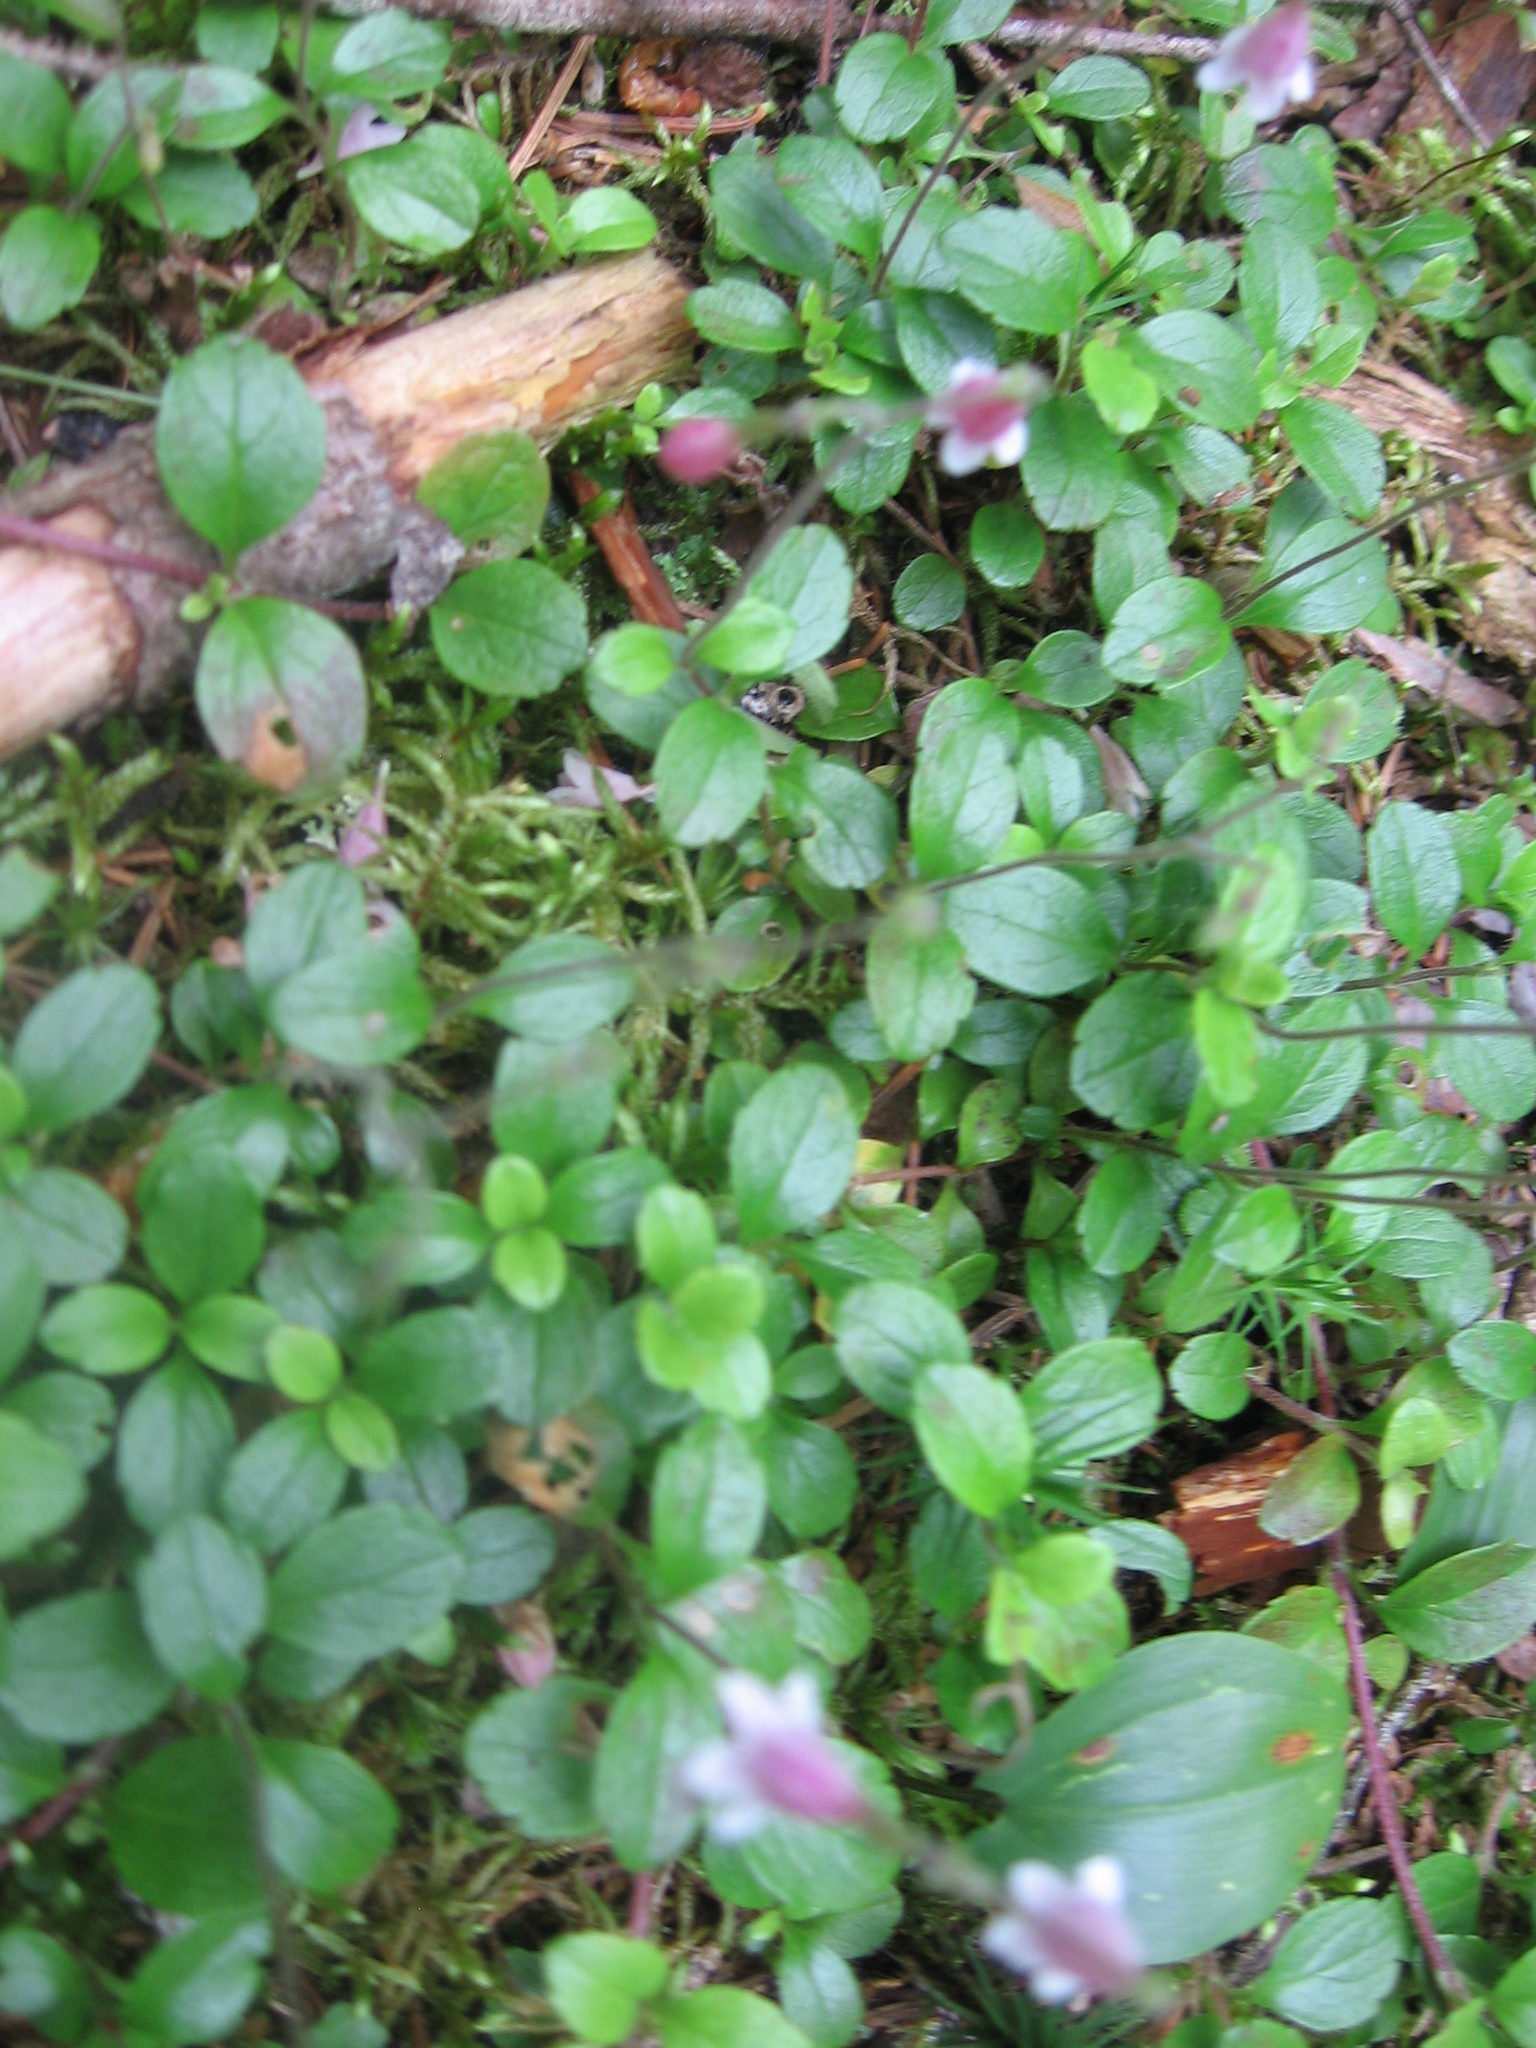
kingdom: Plantae
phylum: Tracheophyta
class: Magnoliopsida
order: Dipsacales
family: Caprifoliaceae
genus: Linnaea
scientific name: Linnaea borealis
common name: Twinflower
